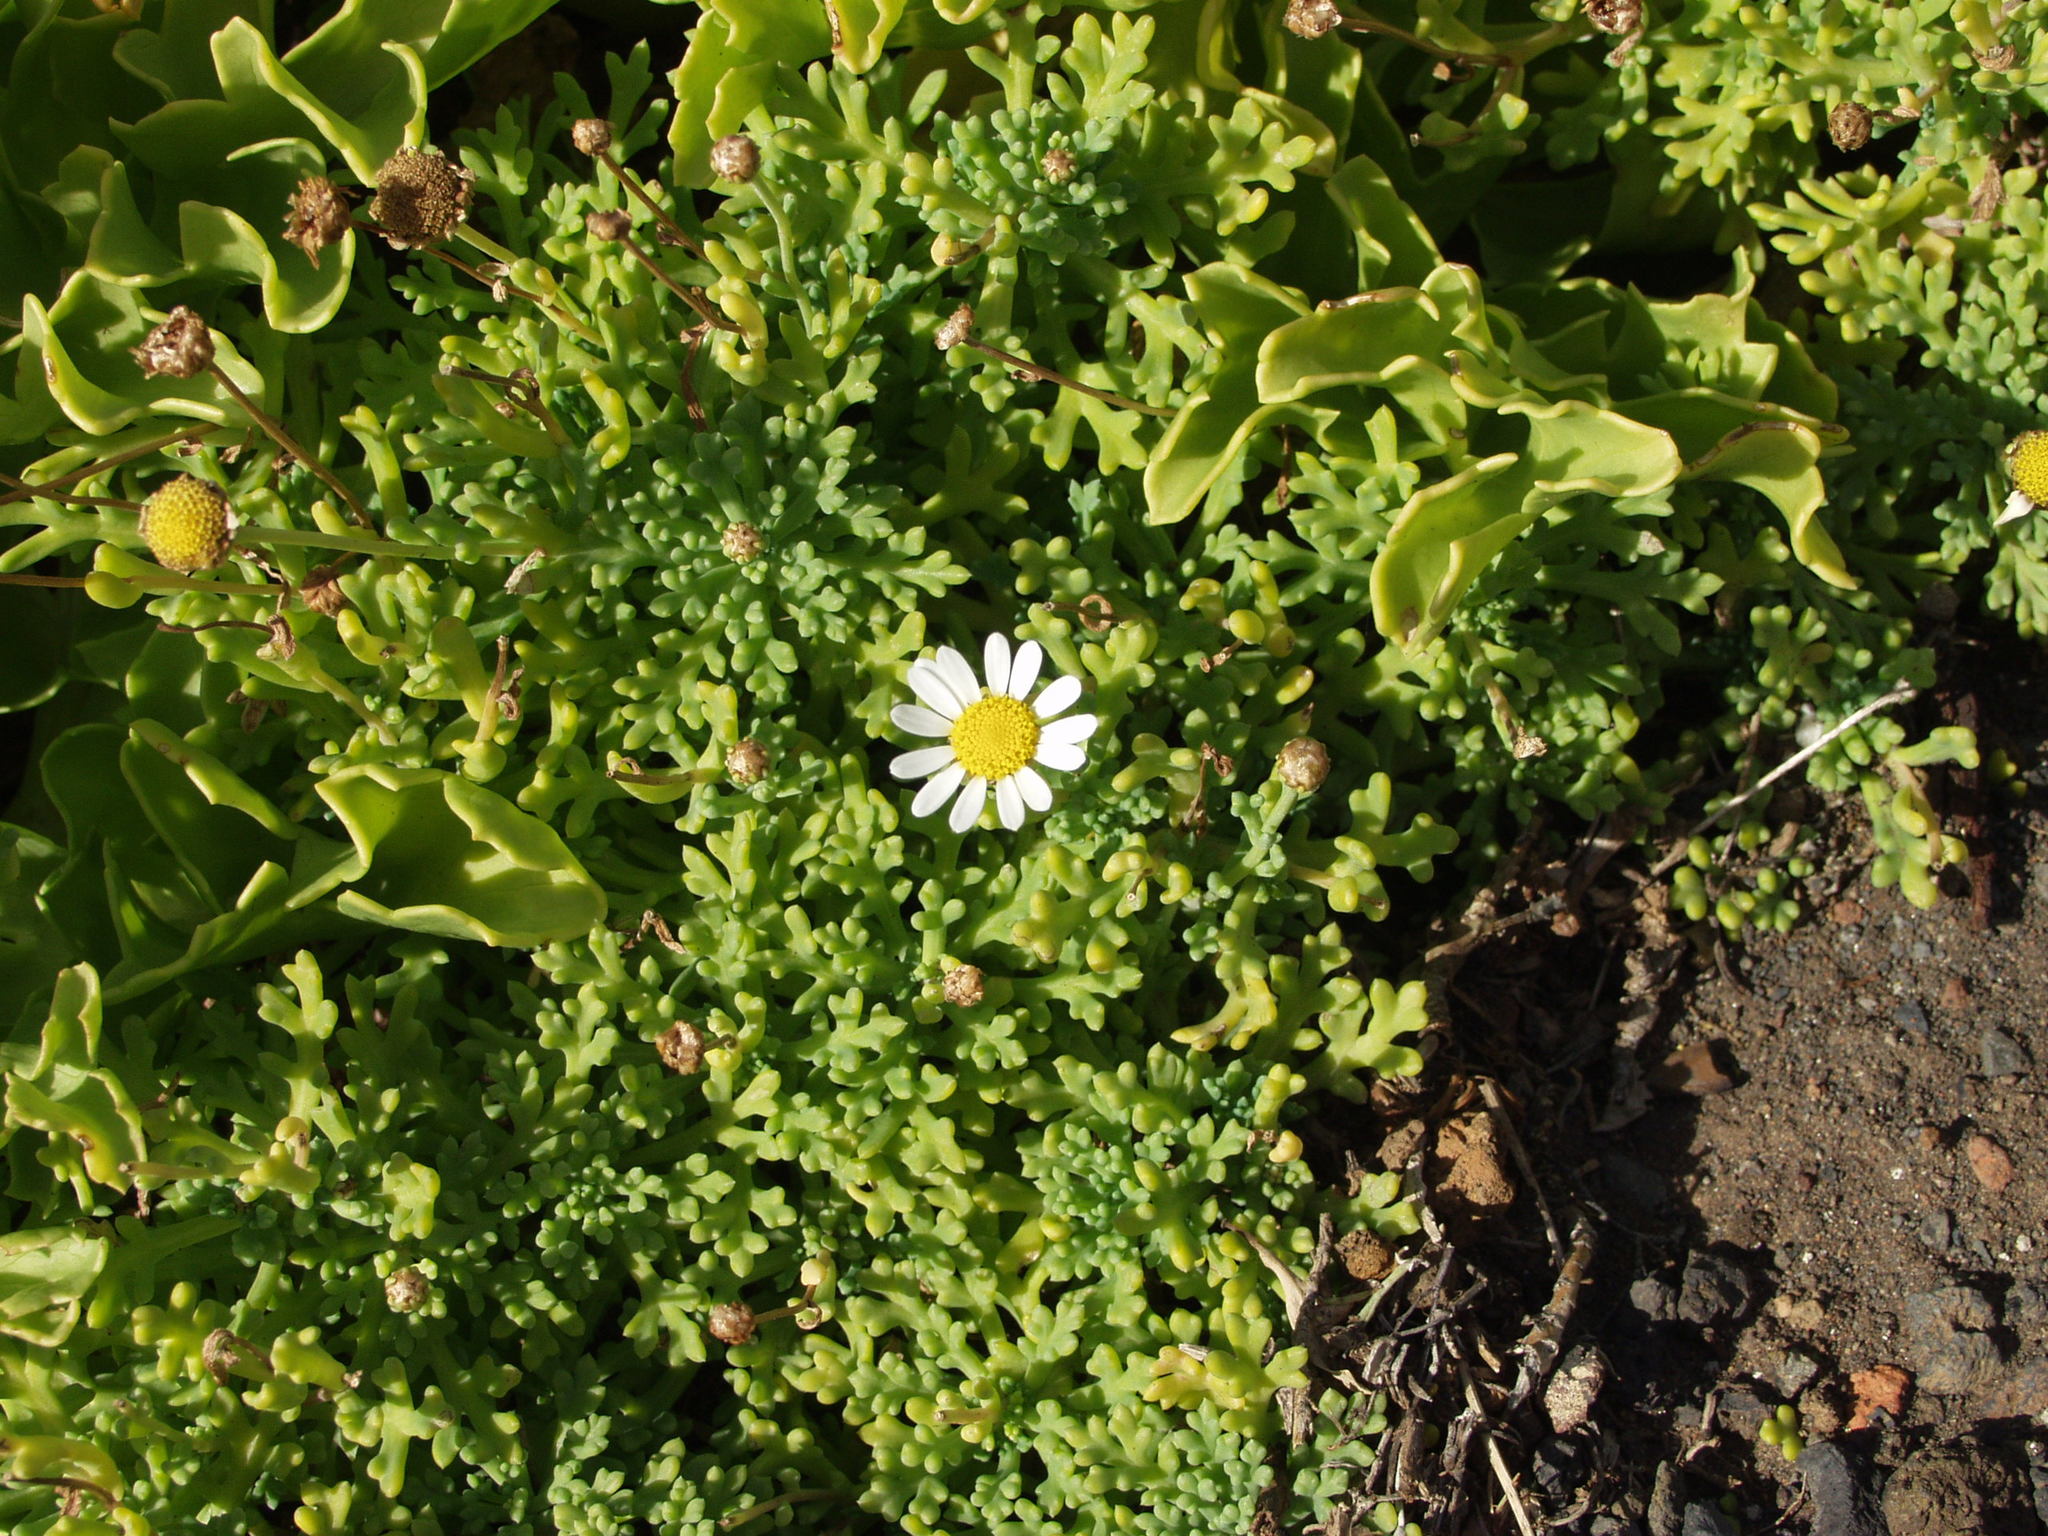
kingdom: Plantae
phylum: Tracheophyta
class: Magnoliopsida
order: Asterales
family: Asteraceae
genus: Argyranthemum
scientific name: Argyranthemum frutescens
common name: Paris daisy
